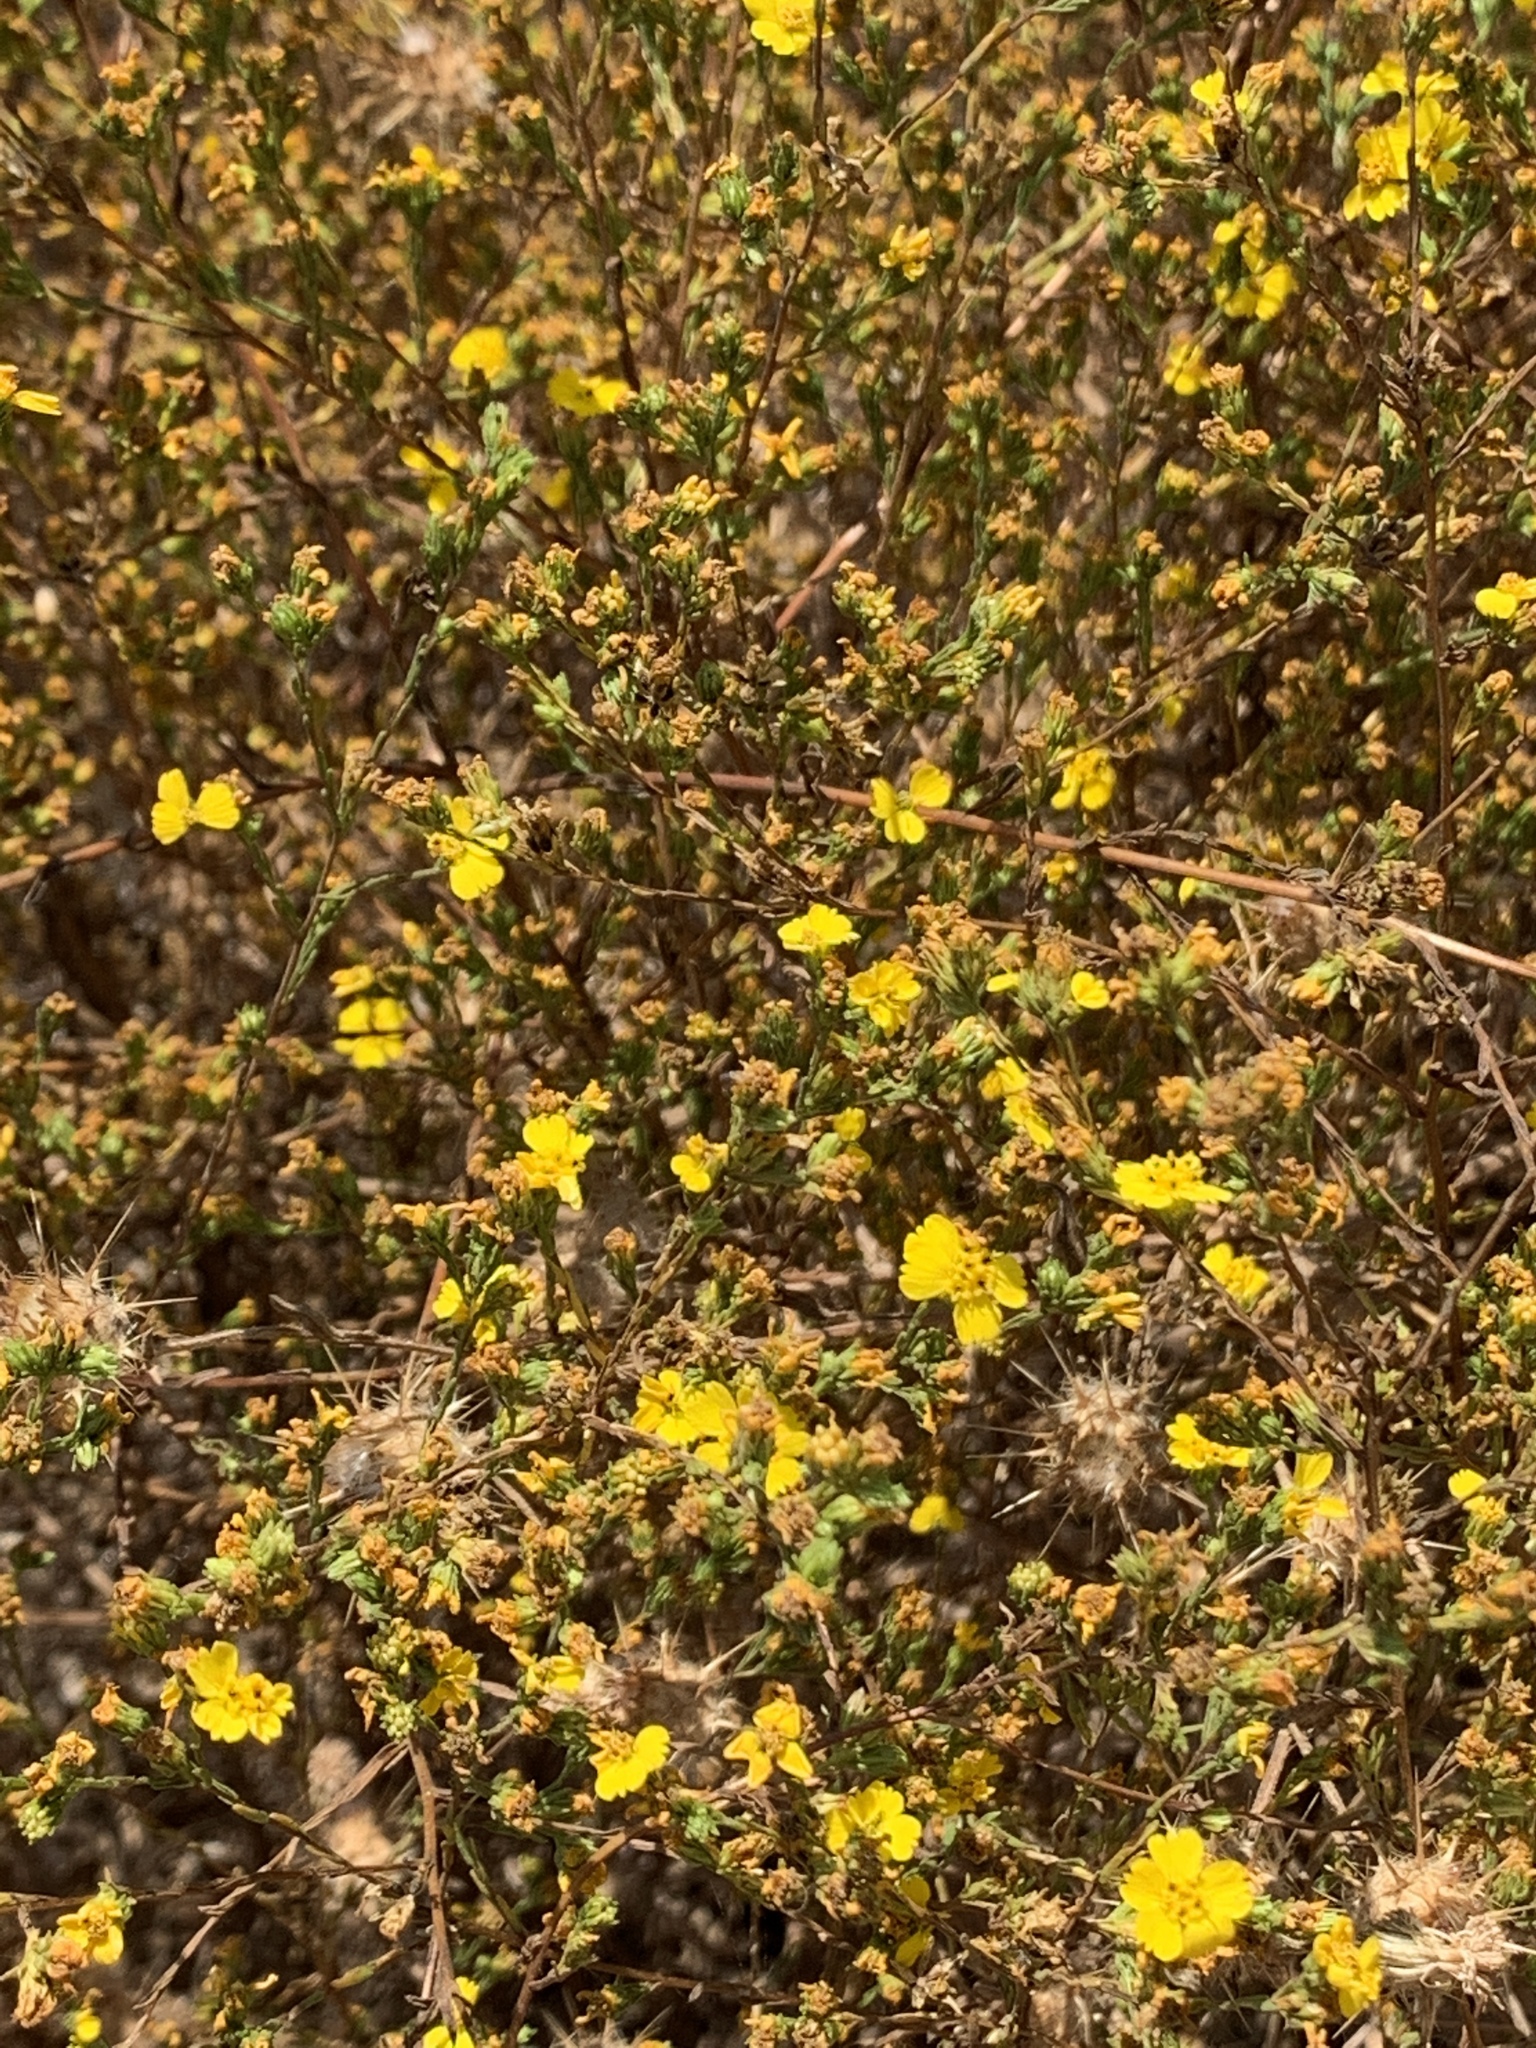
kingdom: Plantae
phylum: Tracheophyta
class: Magnoliopsida
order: Asterales
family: Asteraceae
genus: Deinandra
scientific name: Deinandra fasciculata
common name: Clustered tarweed
